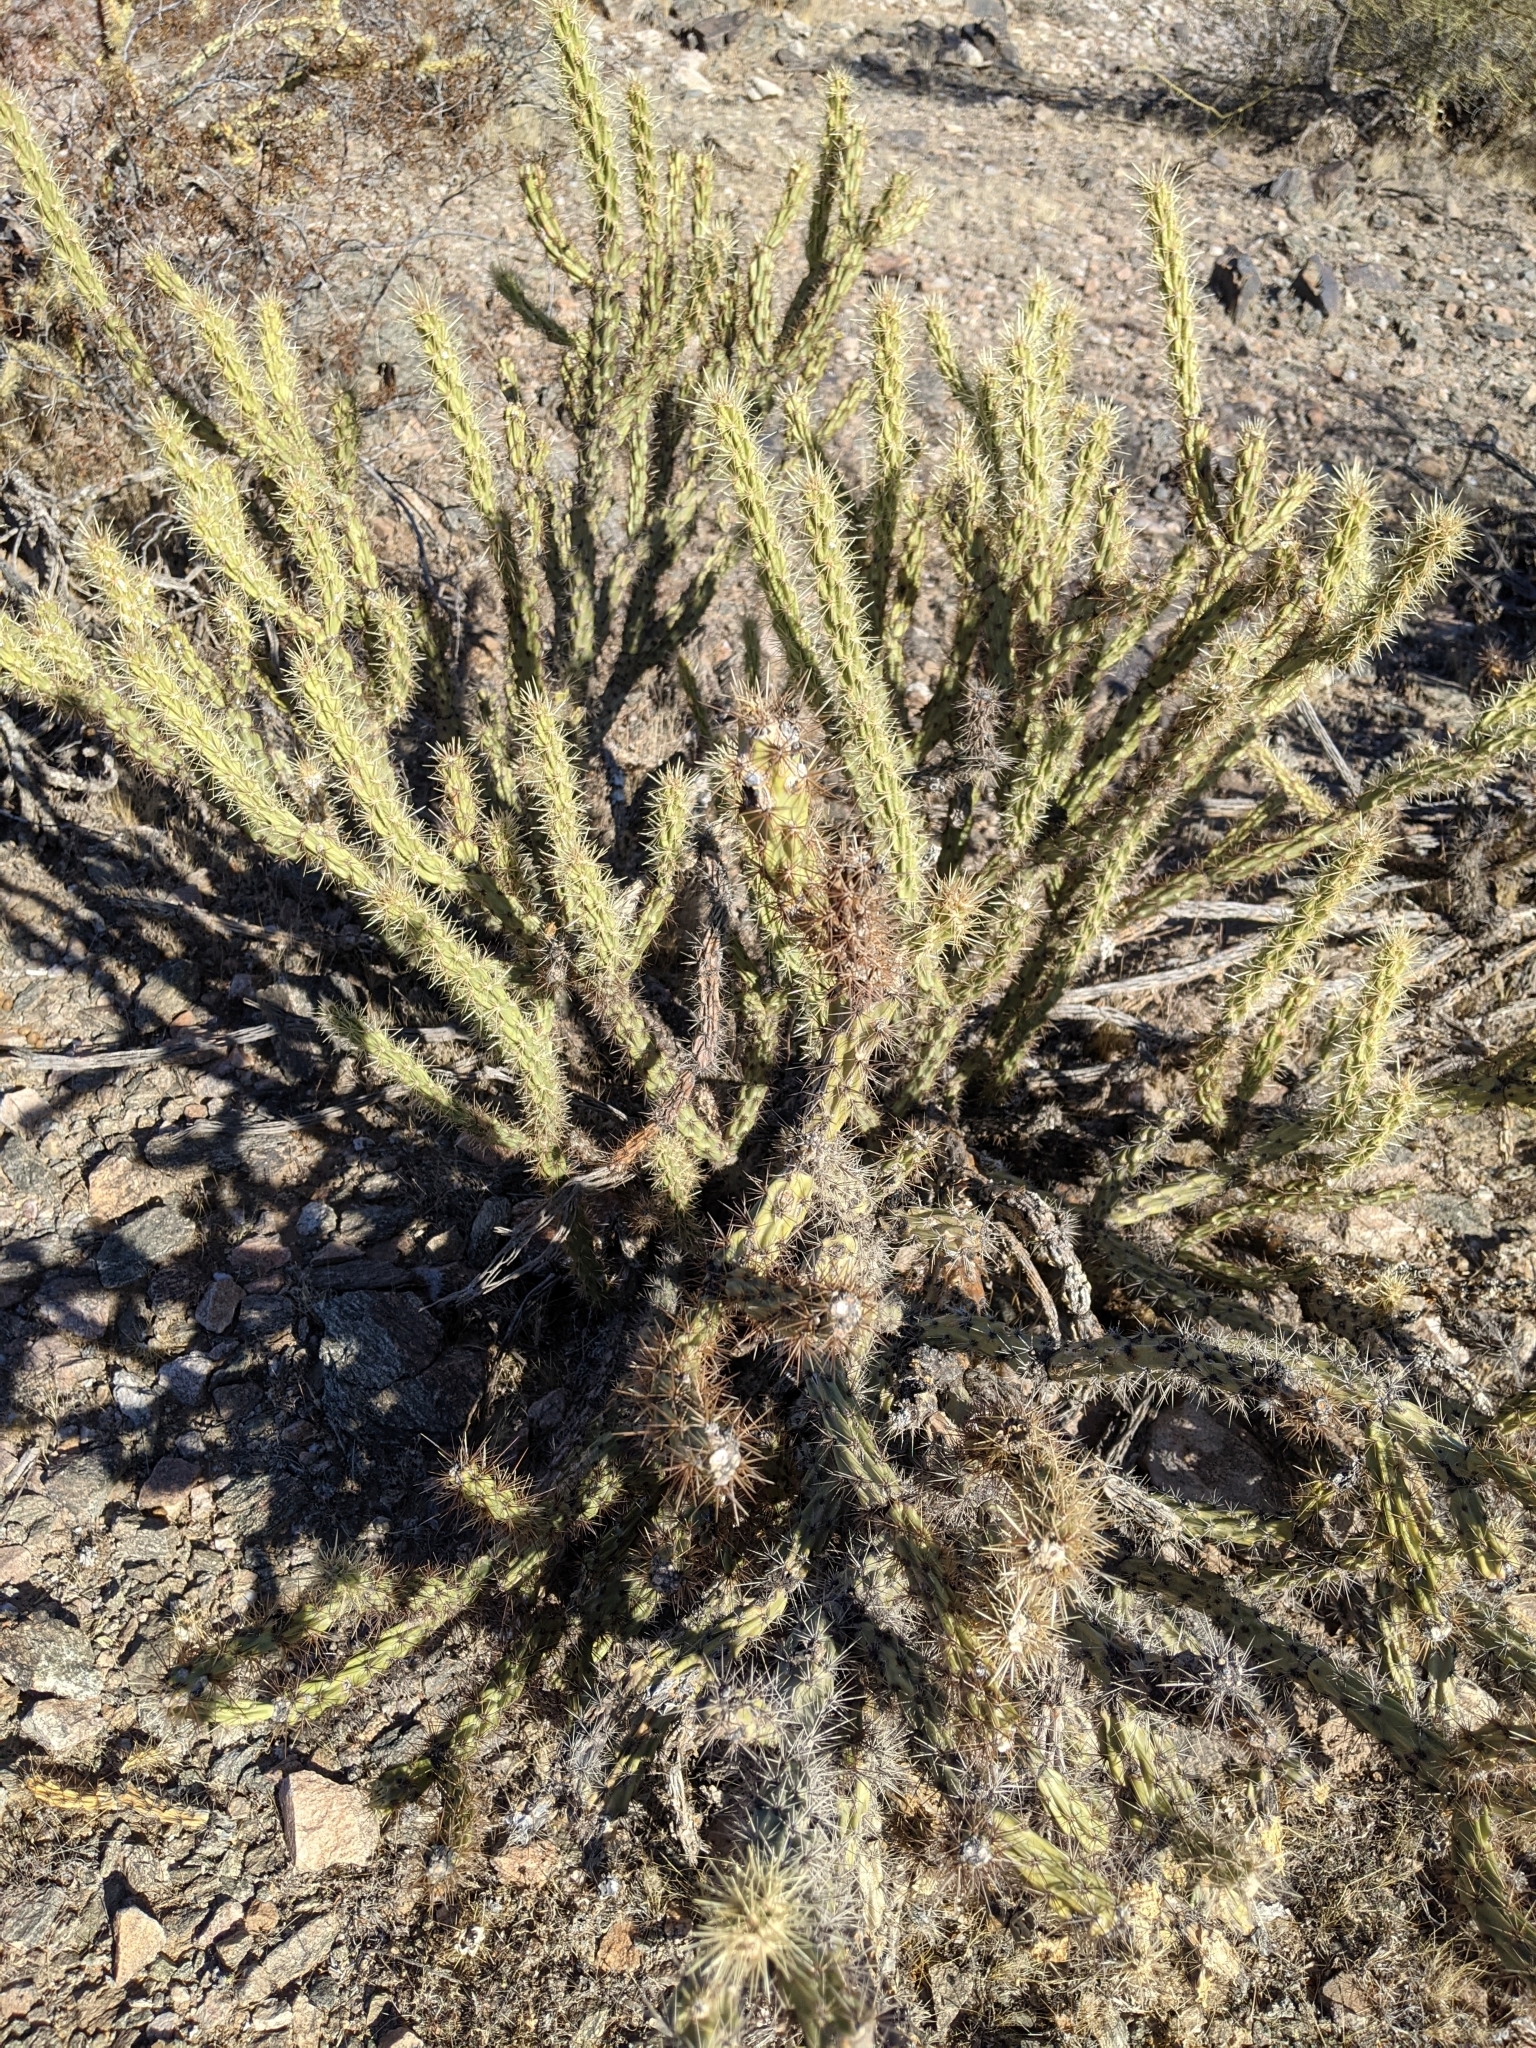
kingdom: Plantae
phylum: Tracheophyta
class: Magnoliopsida
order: Caryophyllales
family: Cactaceae
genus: Cylindropuntia
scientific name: Cylindropuntia acanthocarpa
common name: Buckhorn cholla
